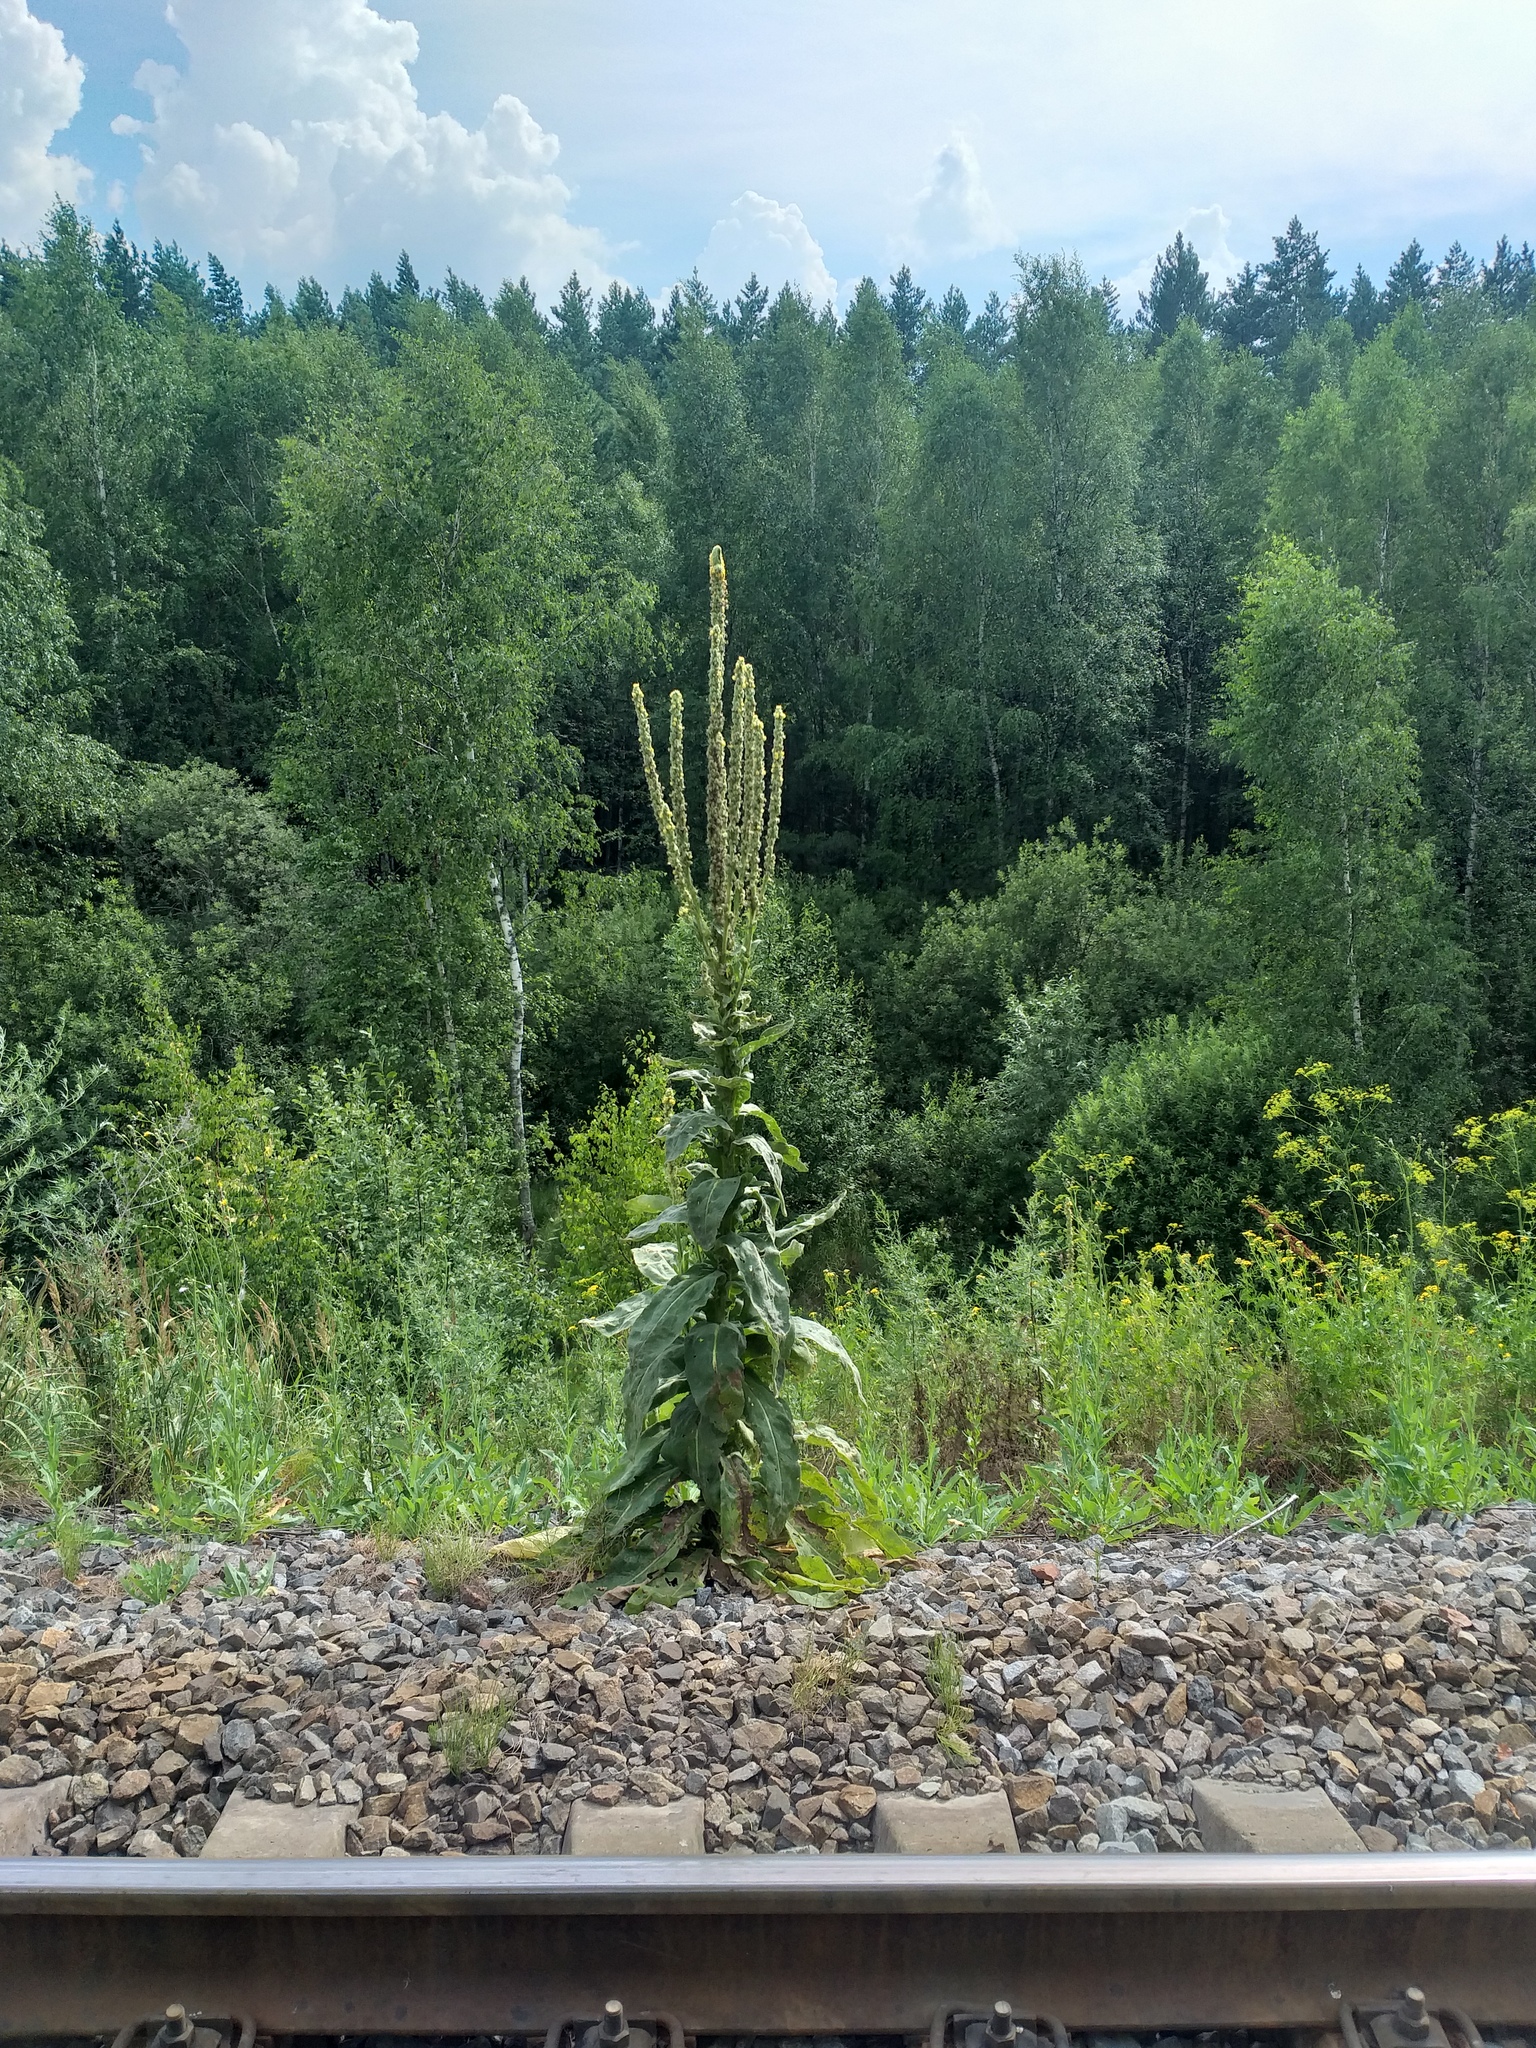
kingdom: Plantae
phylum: Tracheophyta
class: Magnoliopsida
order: Lamiales
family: Scrophulariaceae
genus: Verbascum
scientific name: Verbascum thapsus
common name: Common mullein
